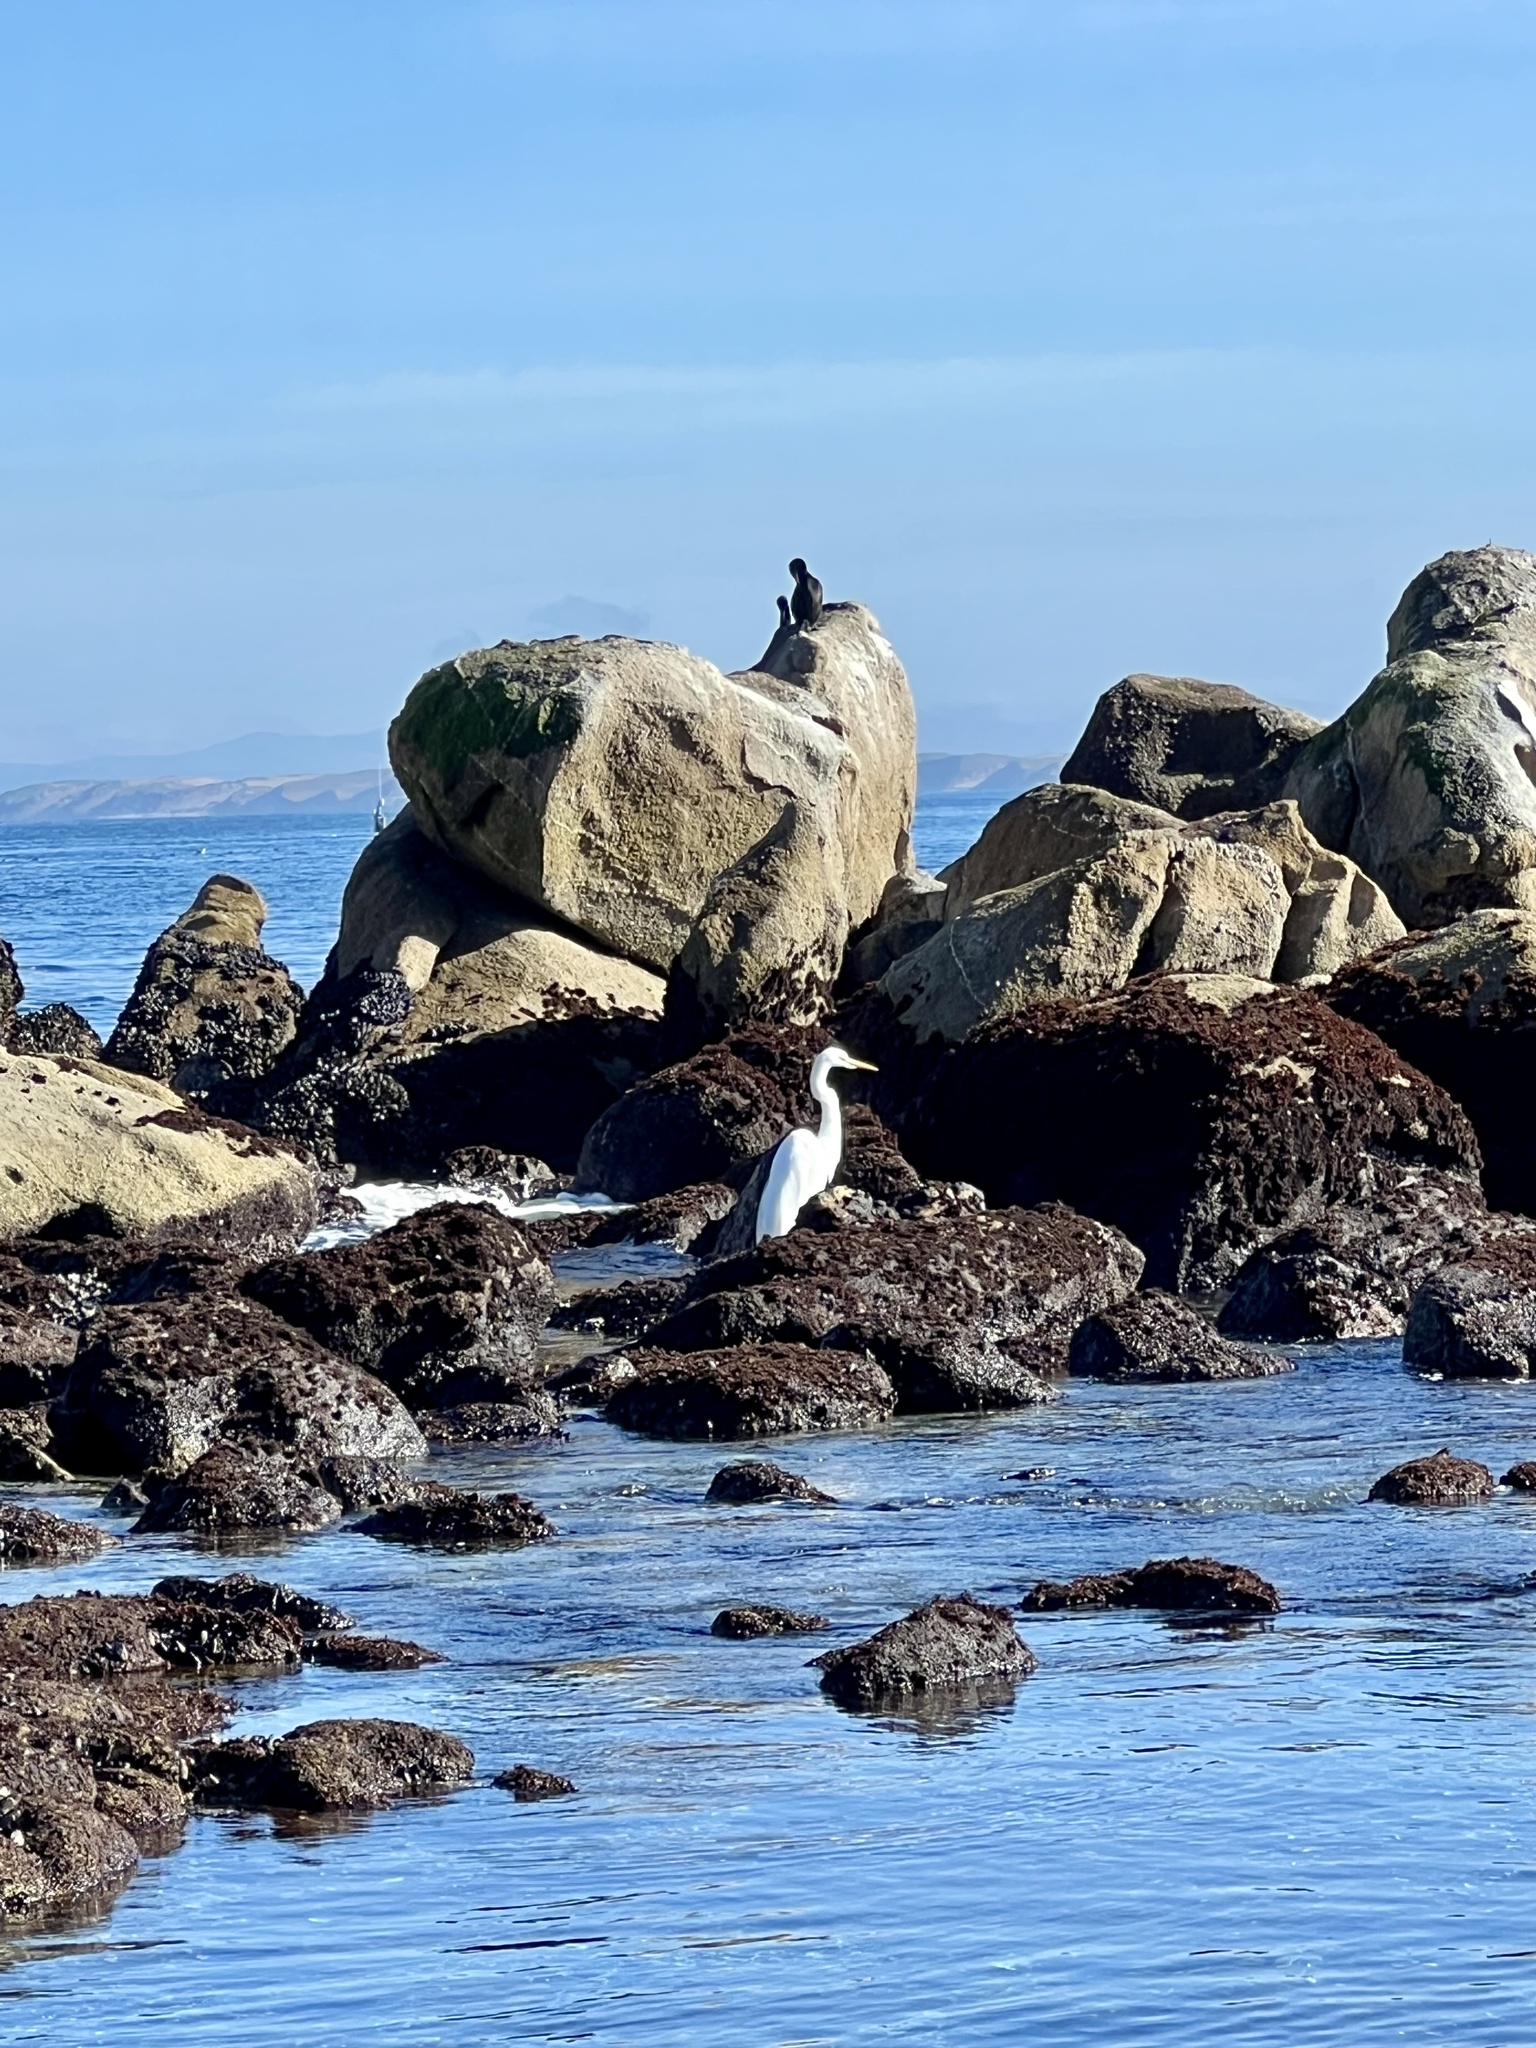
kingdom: Animalia
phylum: Chordata
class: Aves
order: Pelecaniformes
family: Ardeidae
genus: Ardea
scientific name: Ardea alba
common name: Great egret
